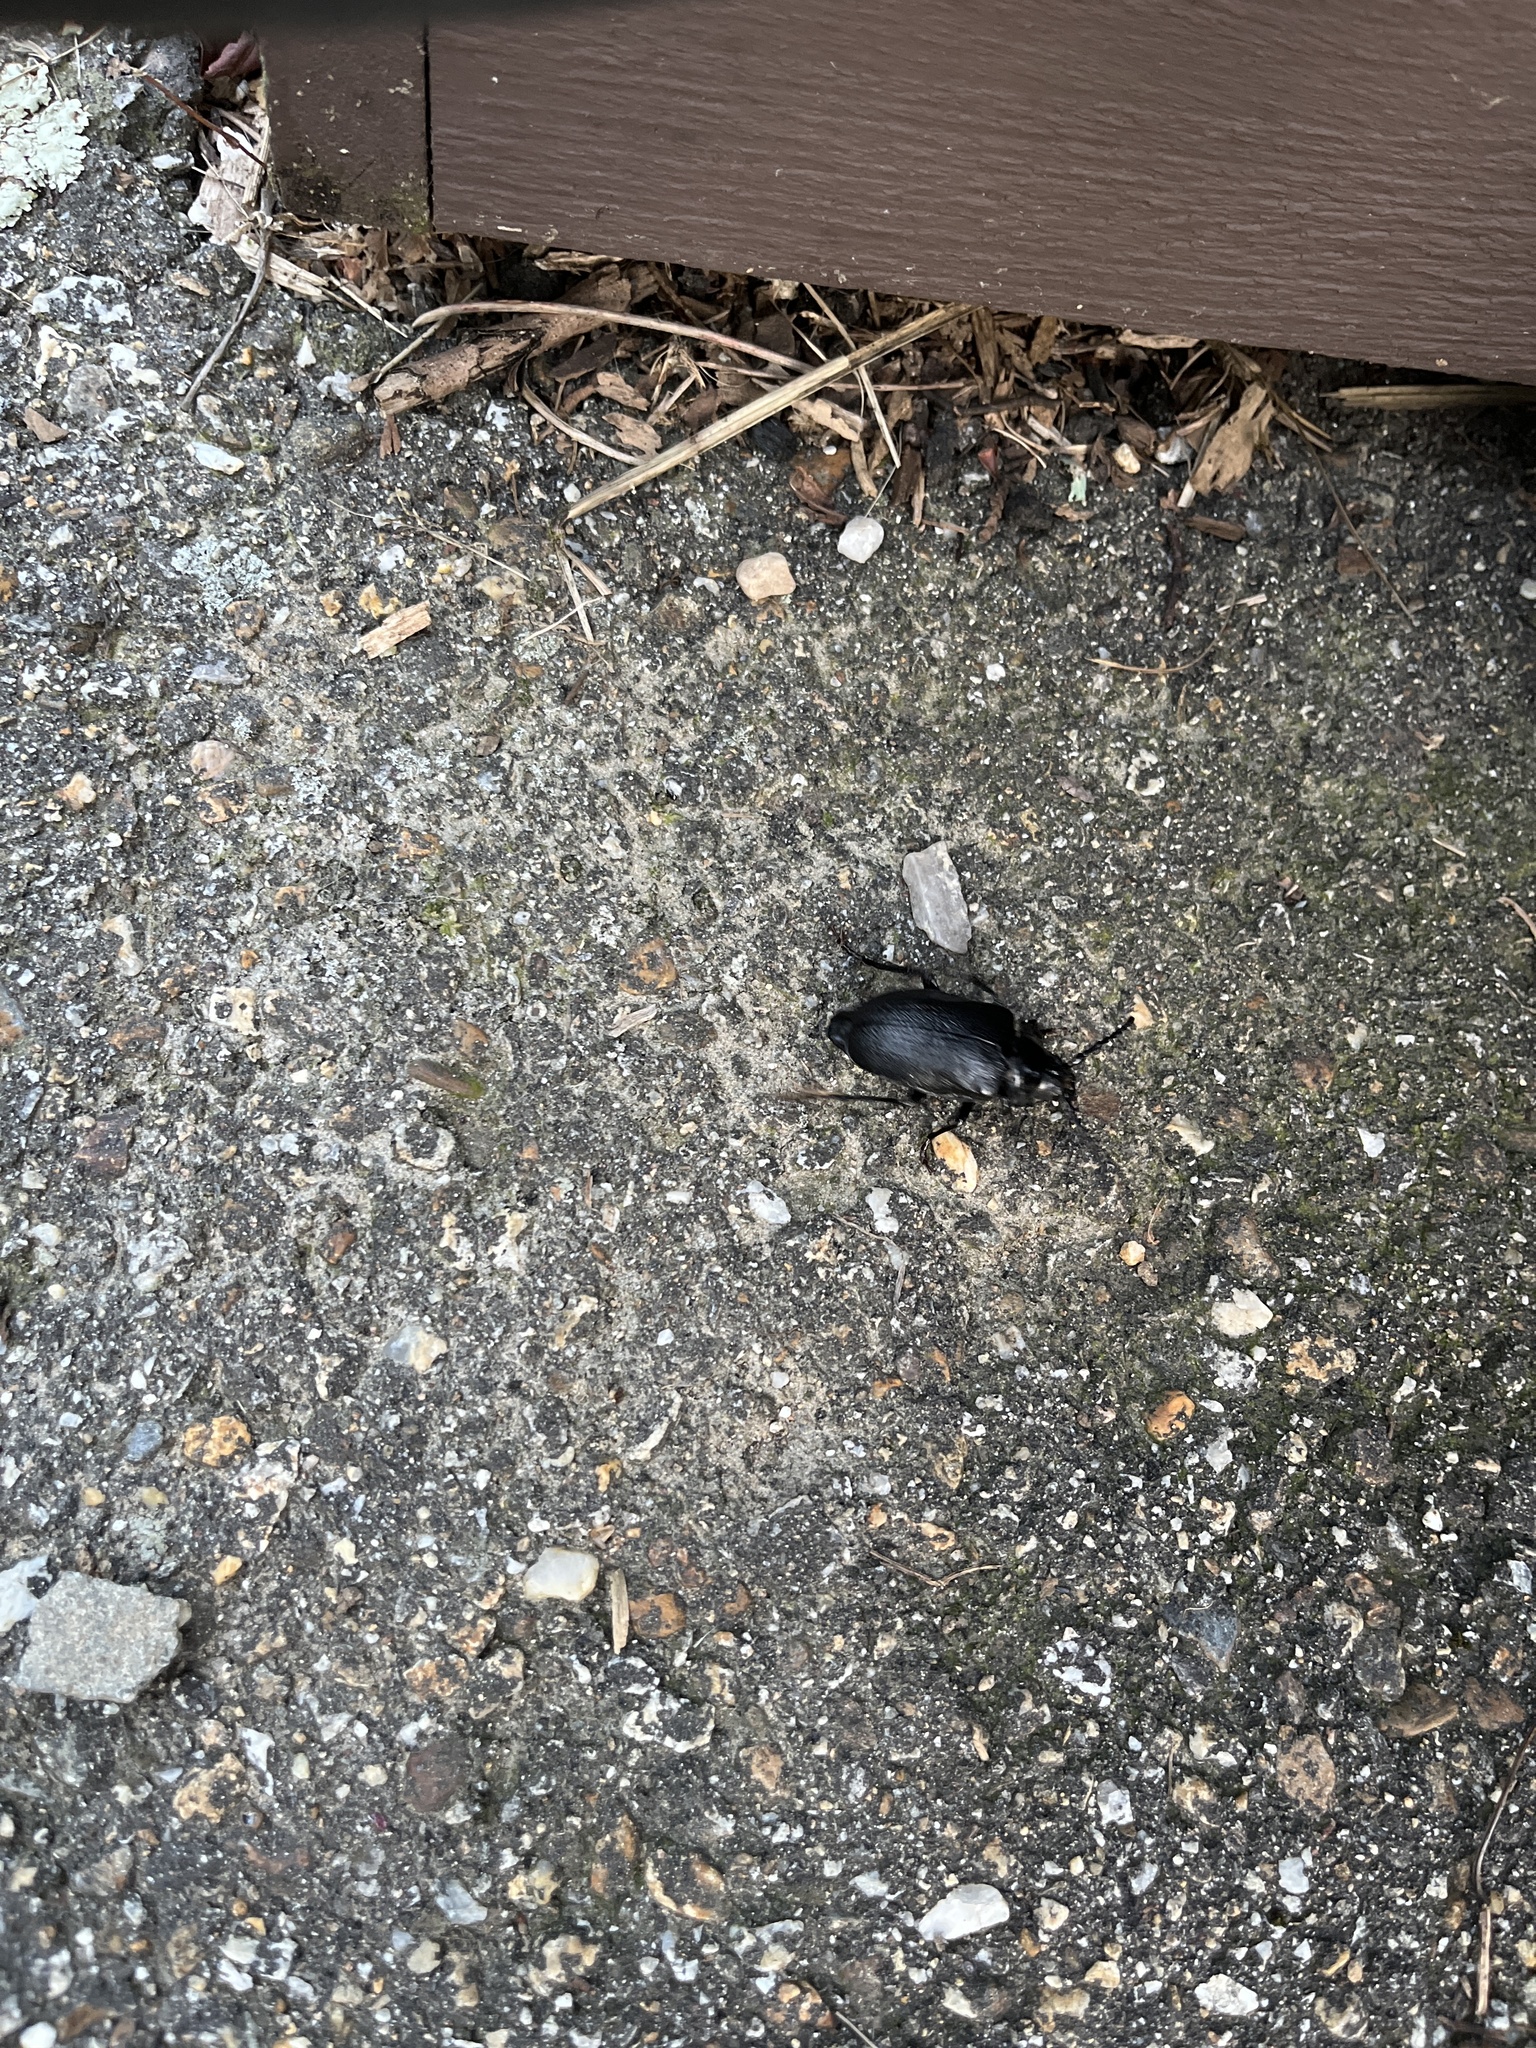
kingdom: Animalia
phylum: Arthropoda
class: Insecta
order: Coleoptera
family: Cerambycidae
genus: Prionus
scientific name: Prionus laticollis
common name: Broad necked prionus
